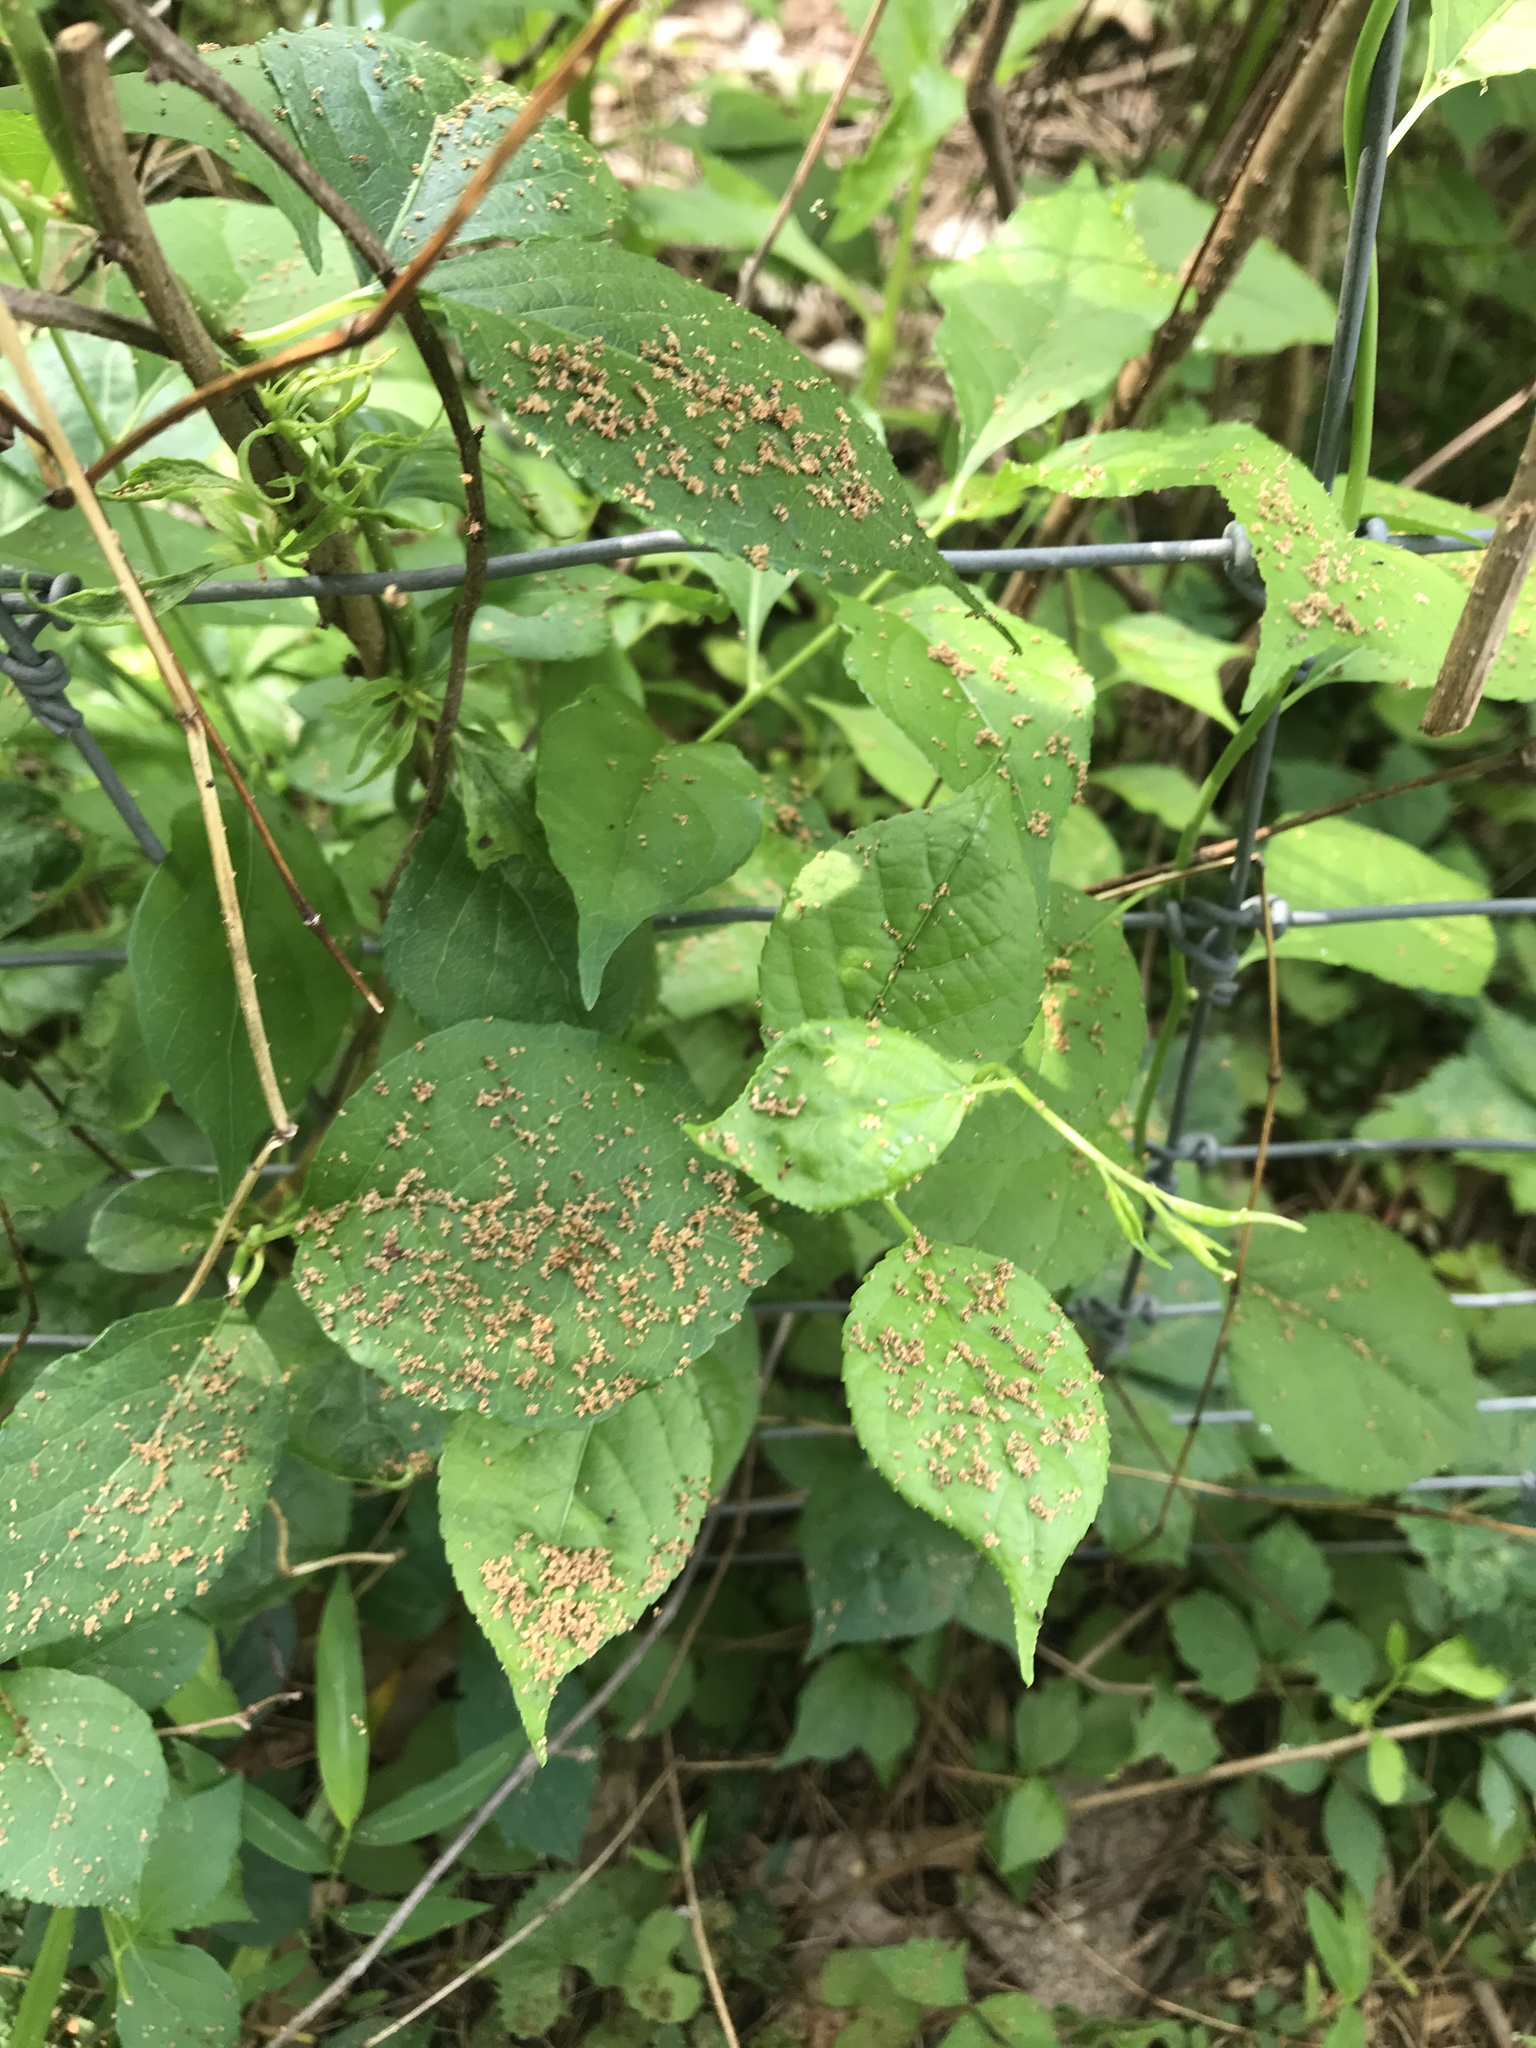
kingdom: Plantae
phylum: Tracheophyta
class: Magnoliopsida
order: Celastrales
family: Celastraceae
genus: Celastrus
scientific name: Celastrus orbiculatus
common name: Oriental bittersweet
